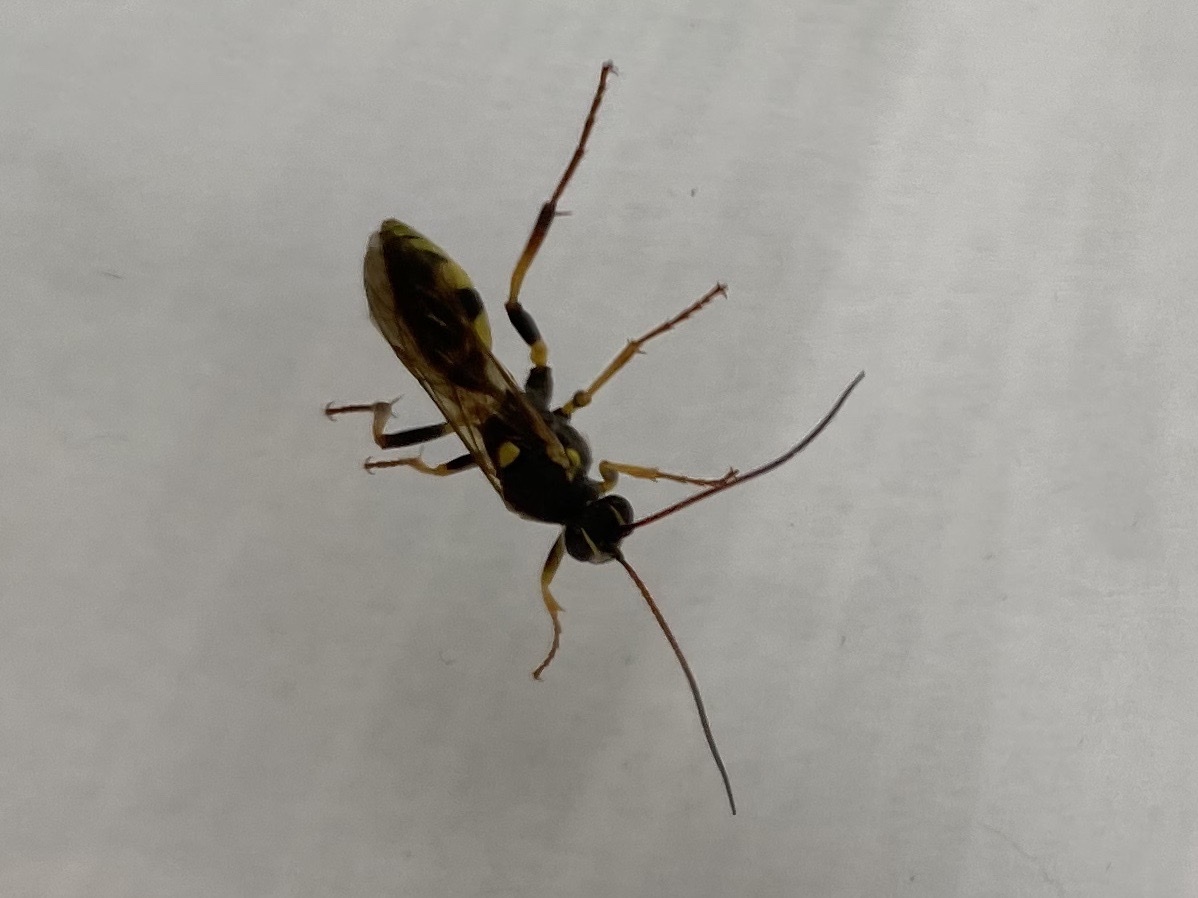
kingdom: Animalia
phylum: Arthropoda
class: Insecta
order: Hymenoptera
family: Ichneumonidae
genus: Amblyteles
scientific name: Amblyteles armatorius
